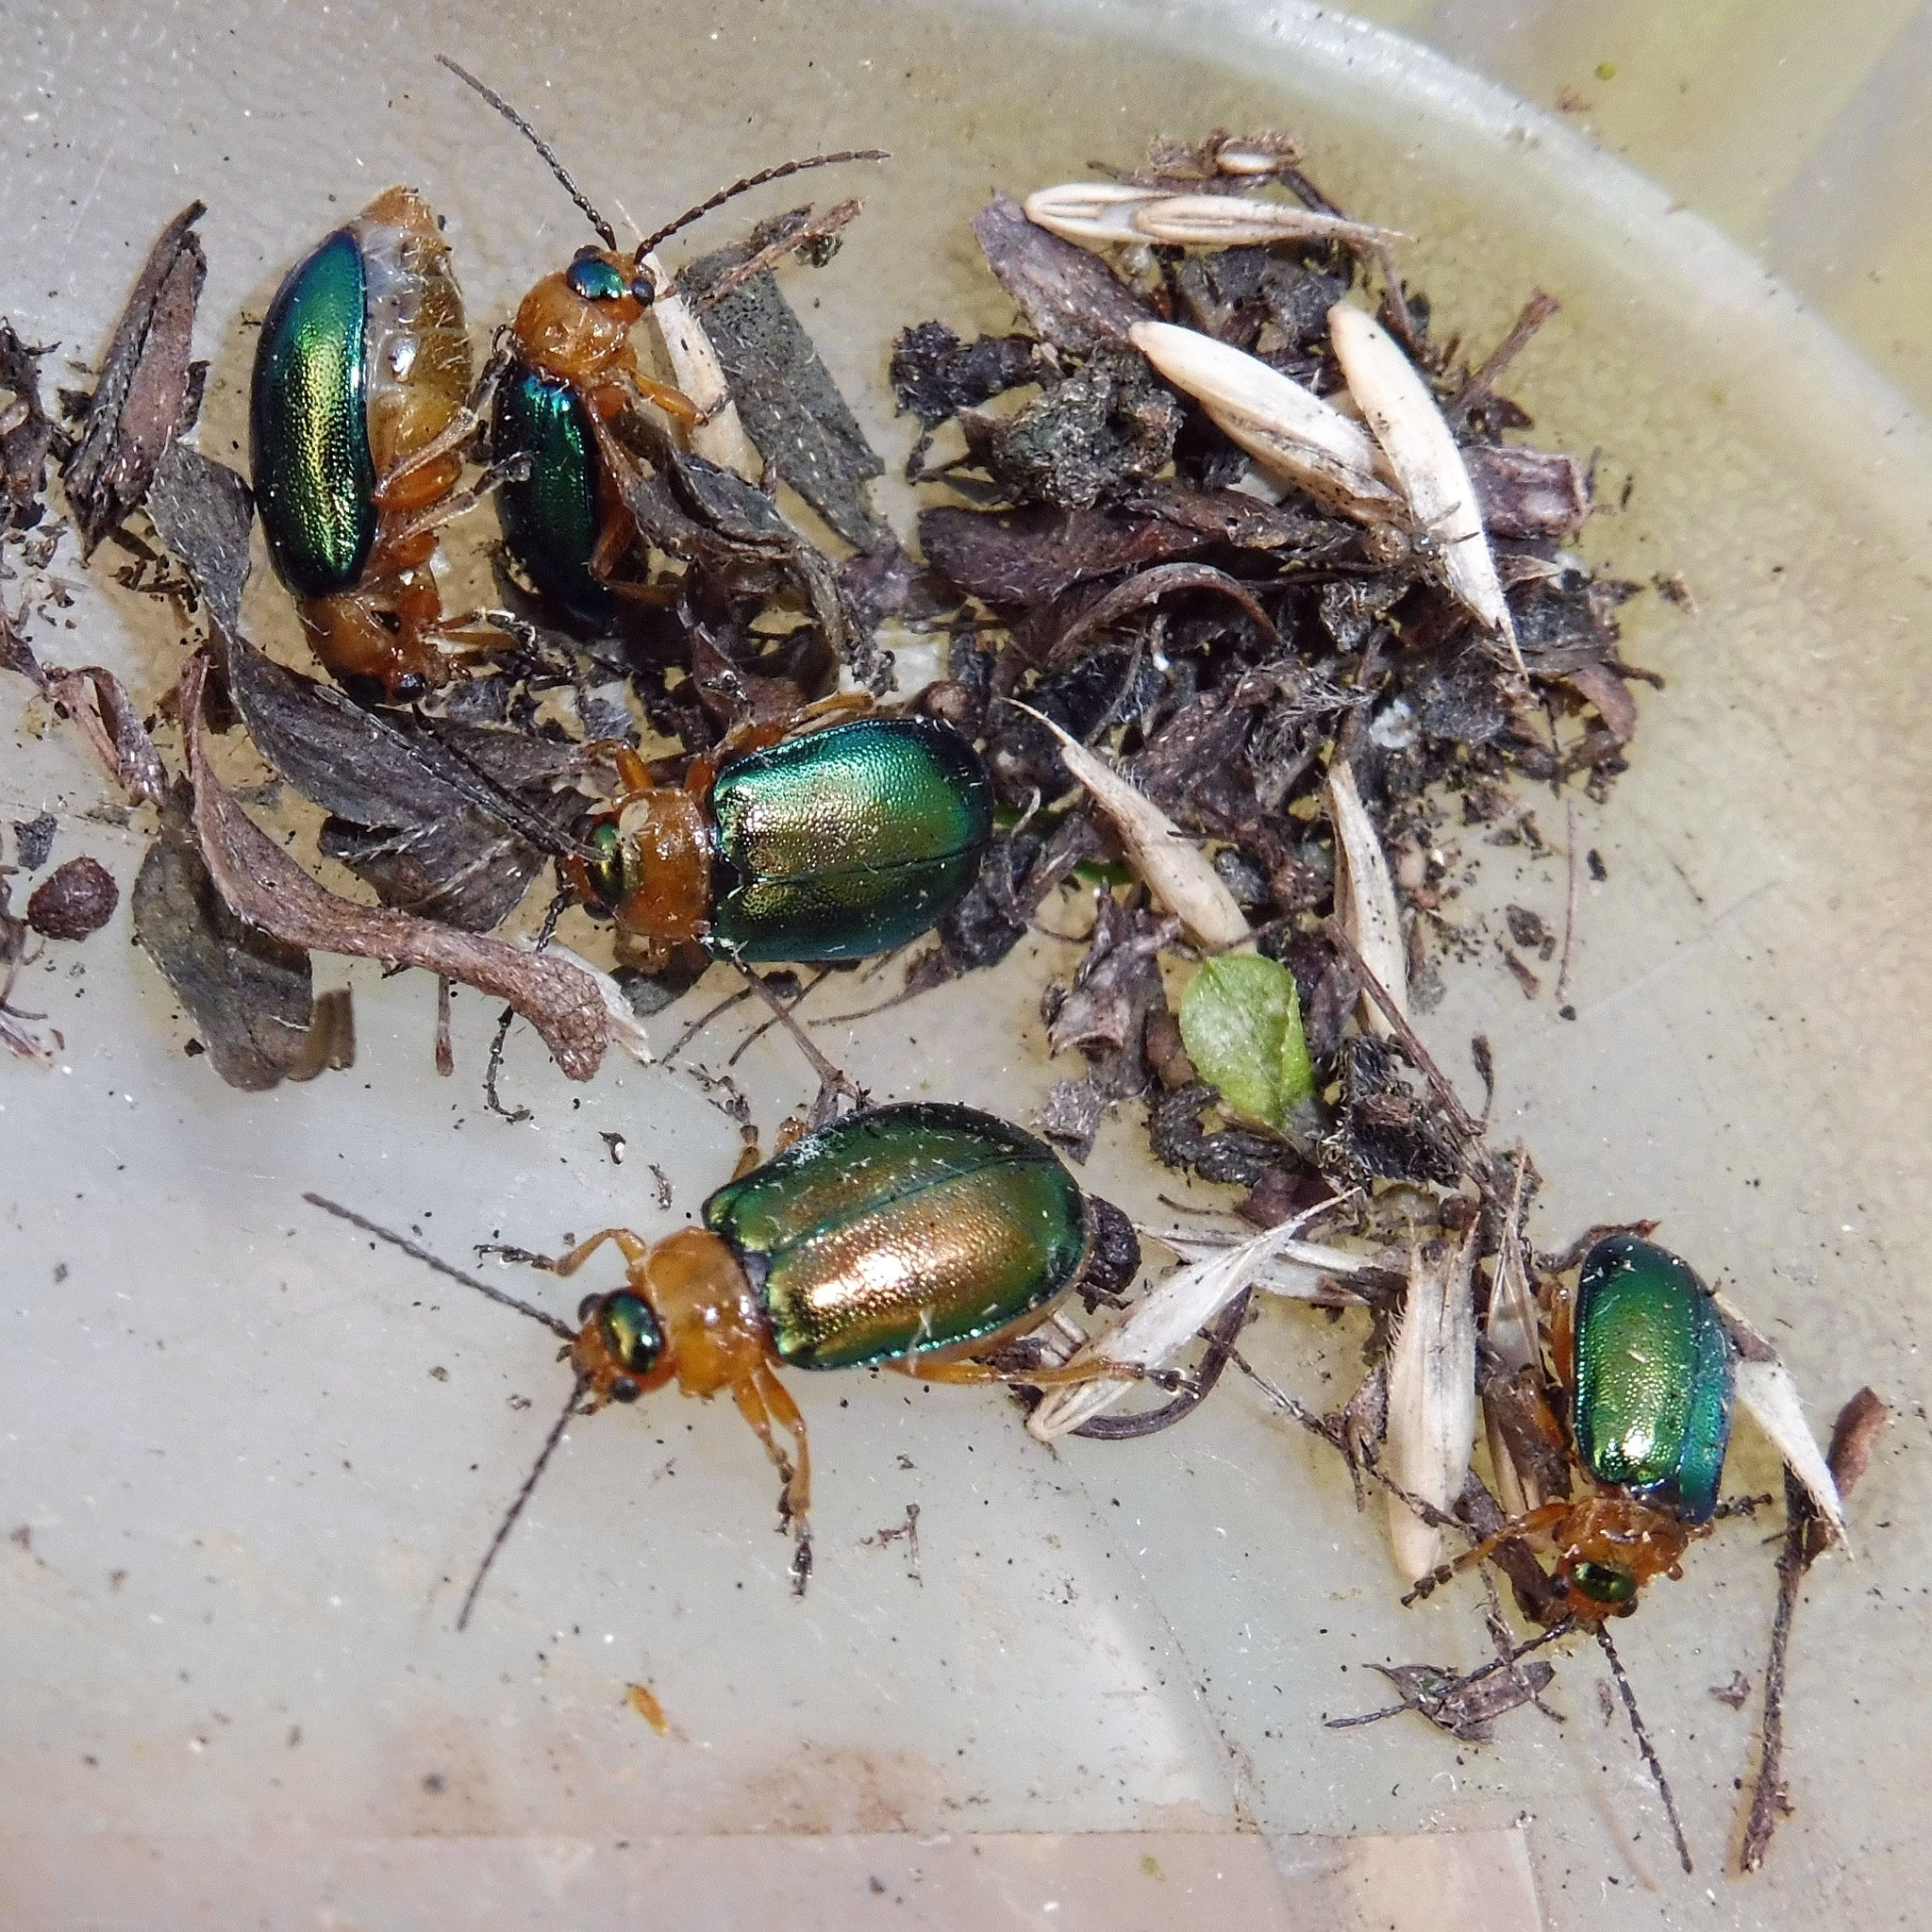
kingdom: Animalia
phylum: Arthropoda
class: Insecta
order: Coleoptera
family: Chrysomelidae
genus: Sermylassa
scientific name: Sermylassa halensis
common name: Leaf beetle
